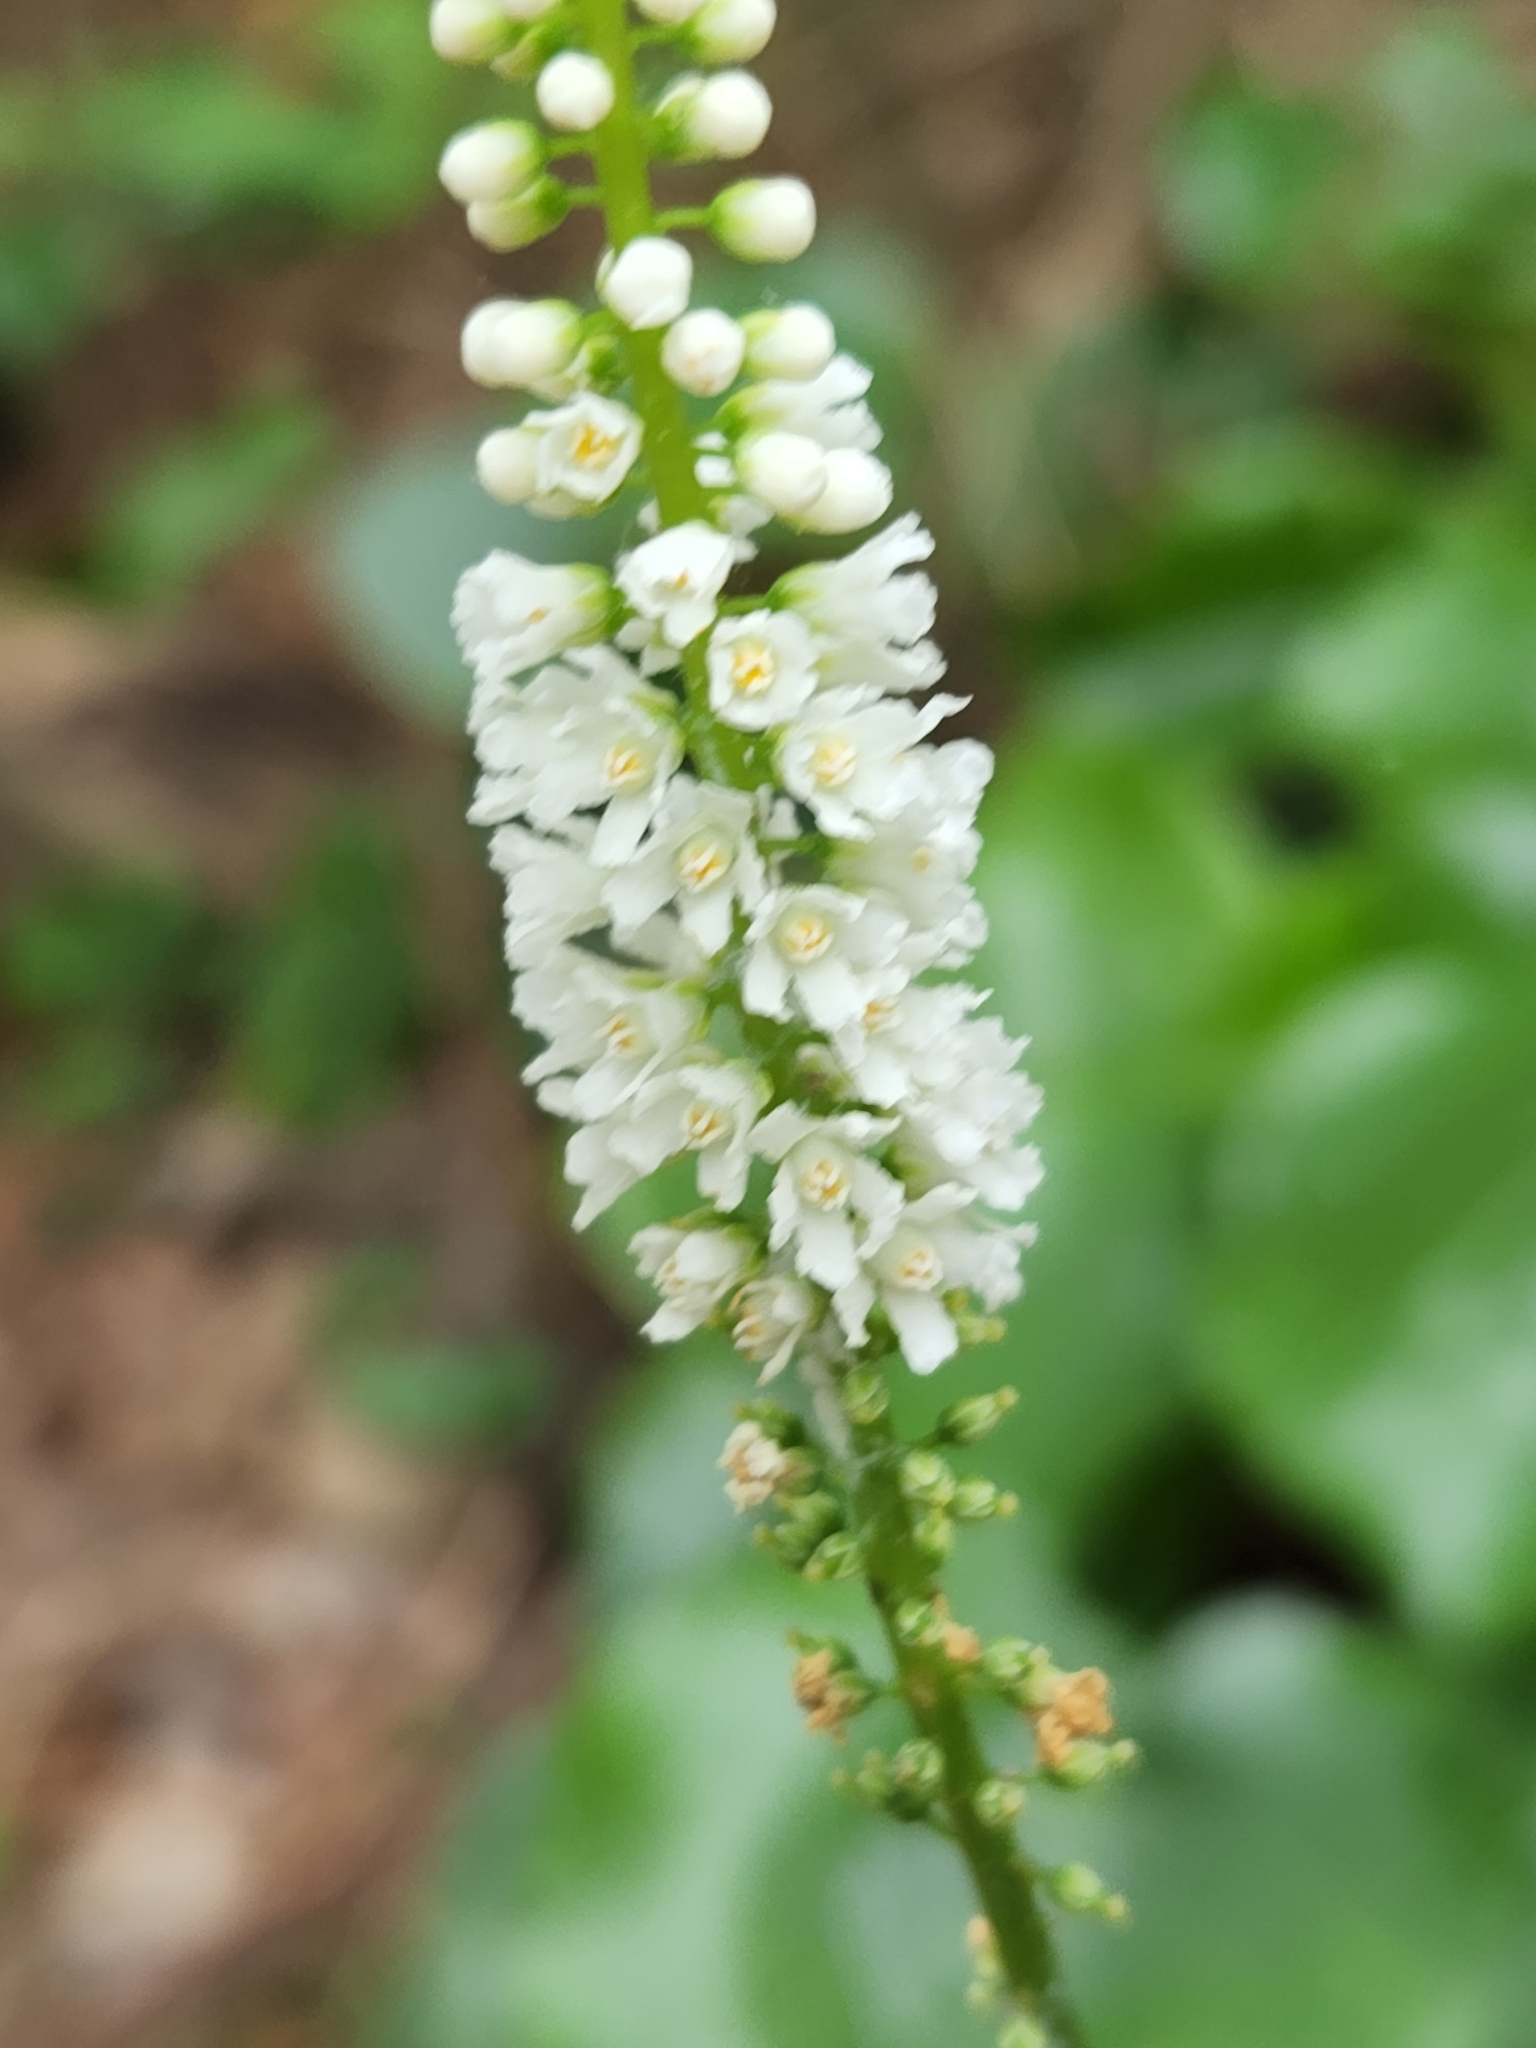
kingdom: Plantae
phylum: Tracheophyta
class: Magnoliopsida
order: Ericales
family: Diapensiaceae
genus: Galax
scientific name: Galax urceolata
